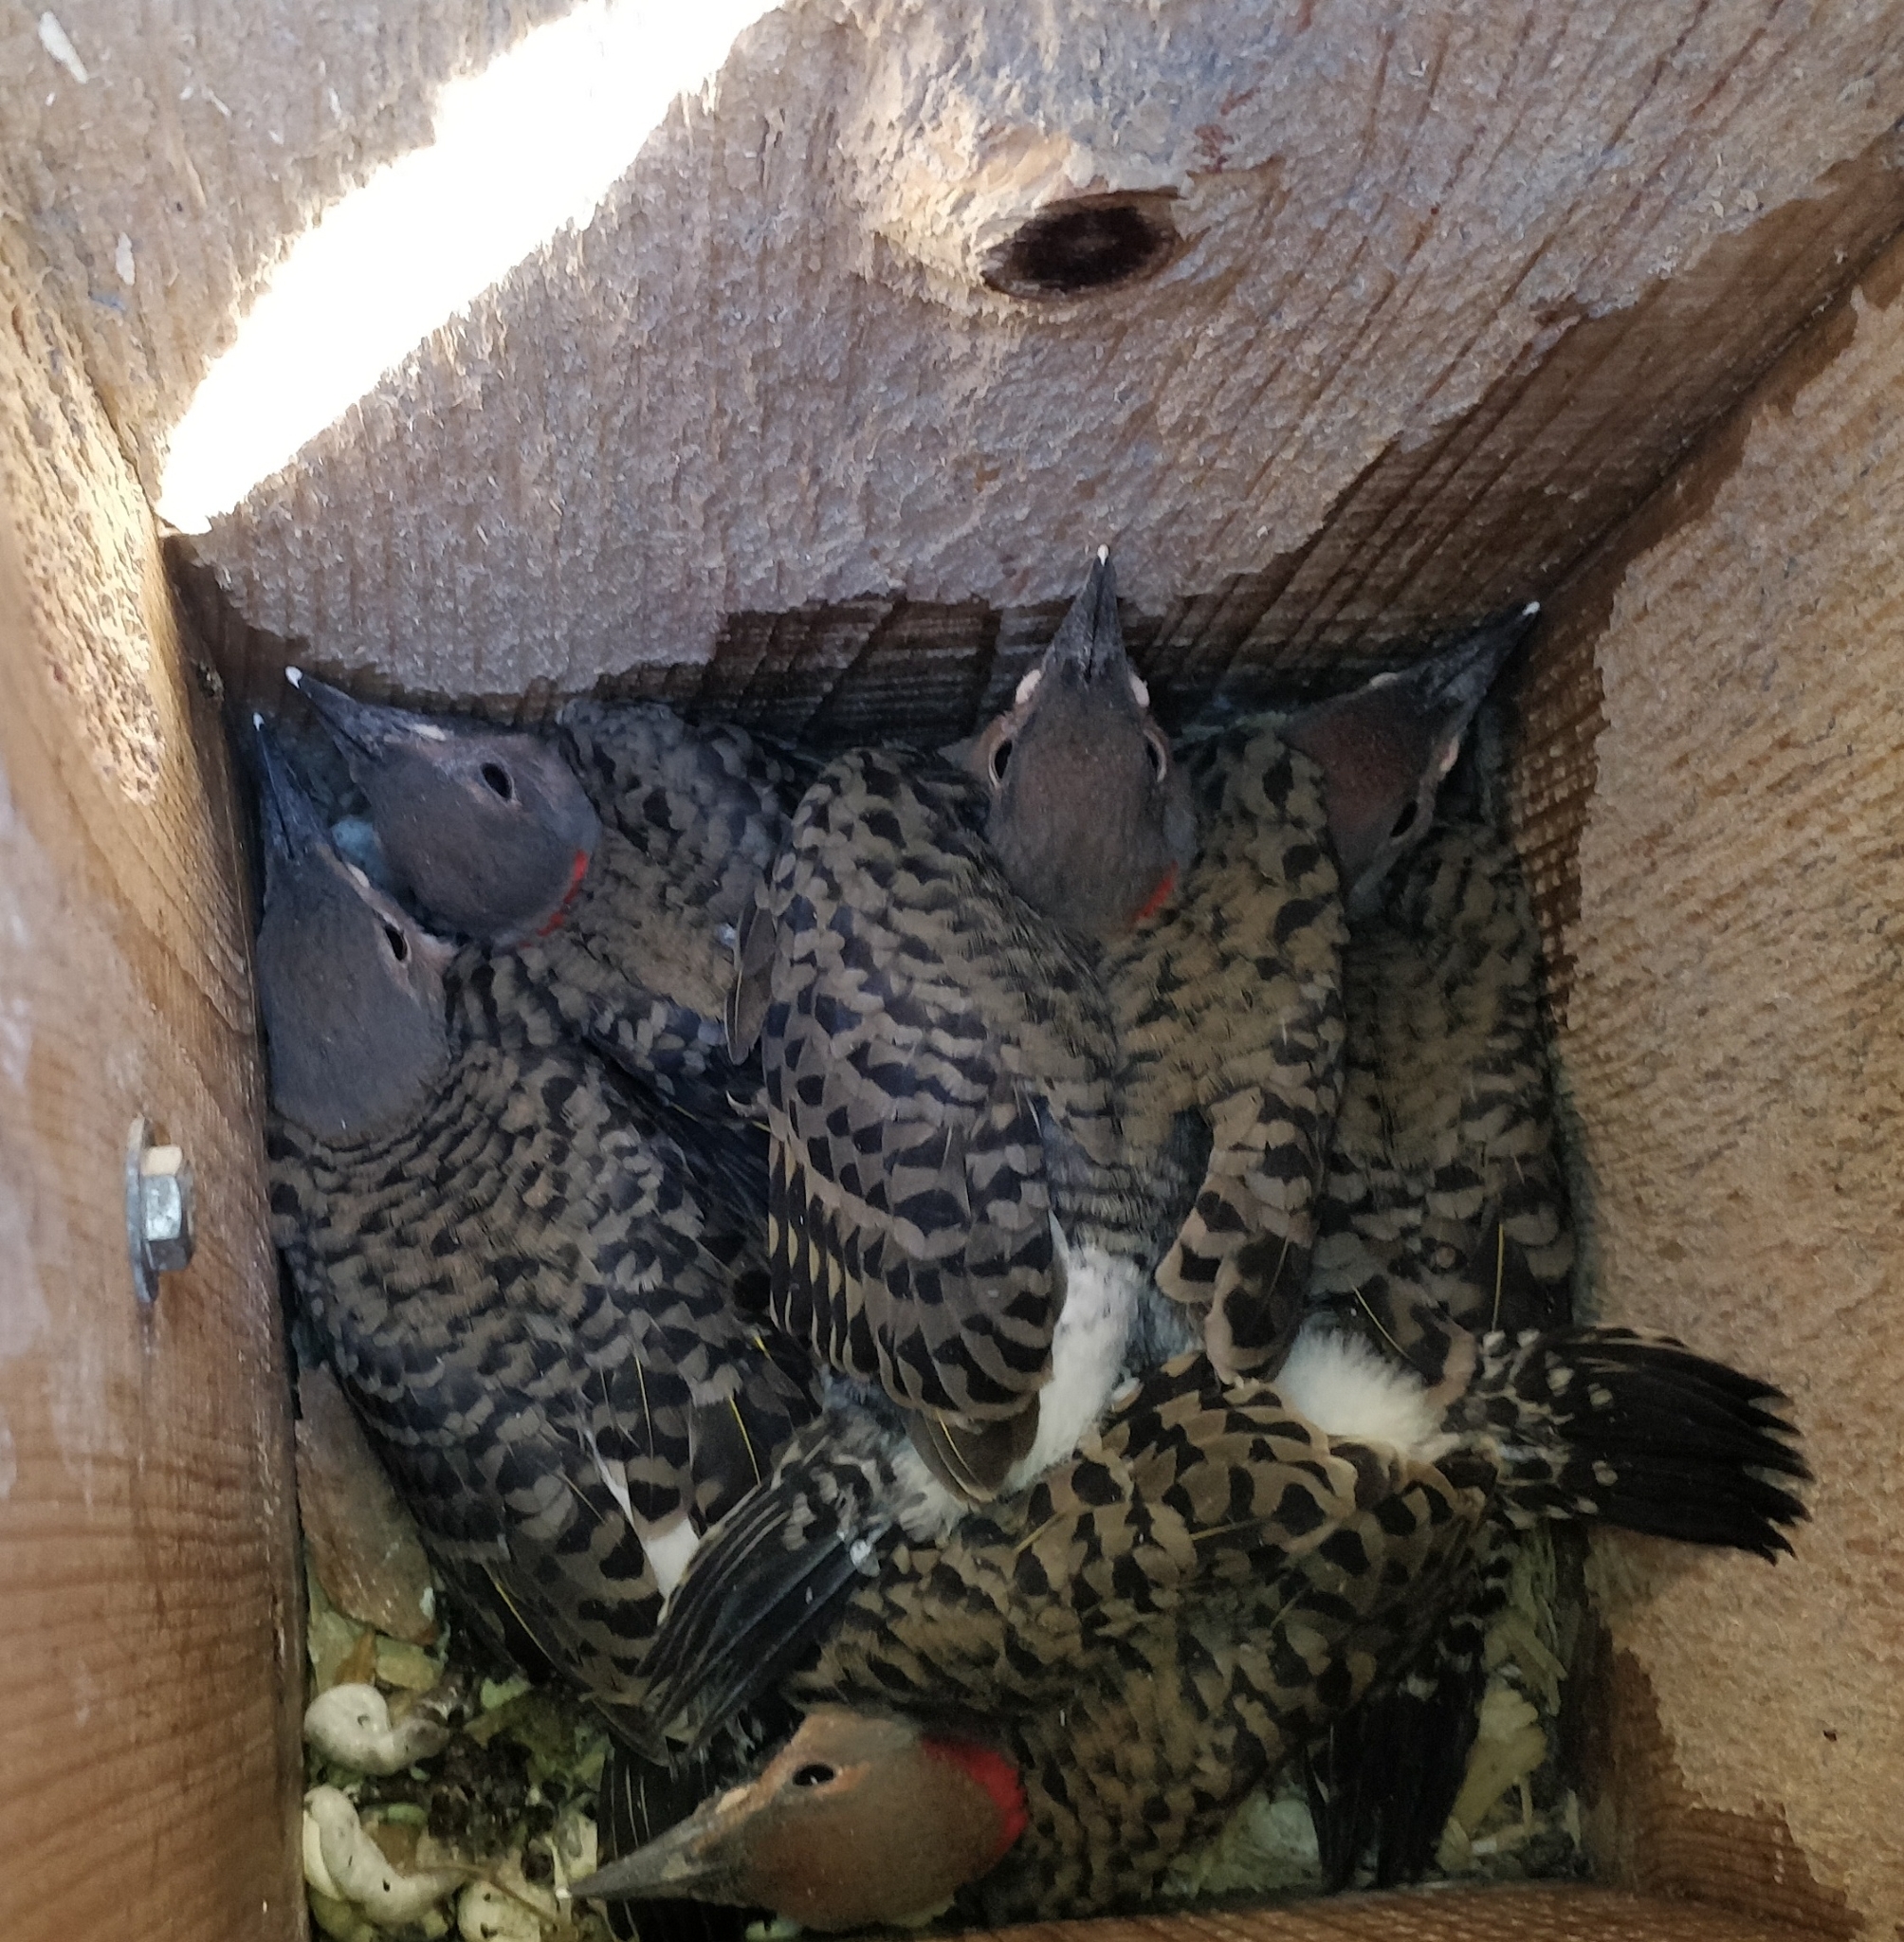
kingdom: Animalia
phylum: Chordata
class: Aves
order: Piciformes
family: Picidae
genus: Colaptes
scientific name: Colaptes auratus
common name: Northern flicker
